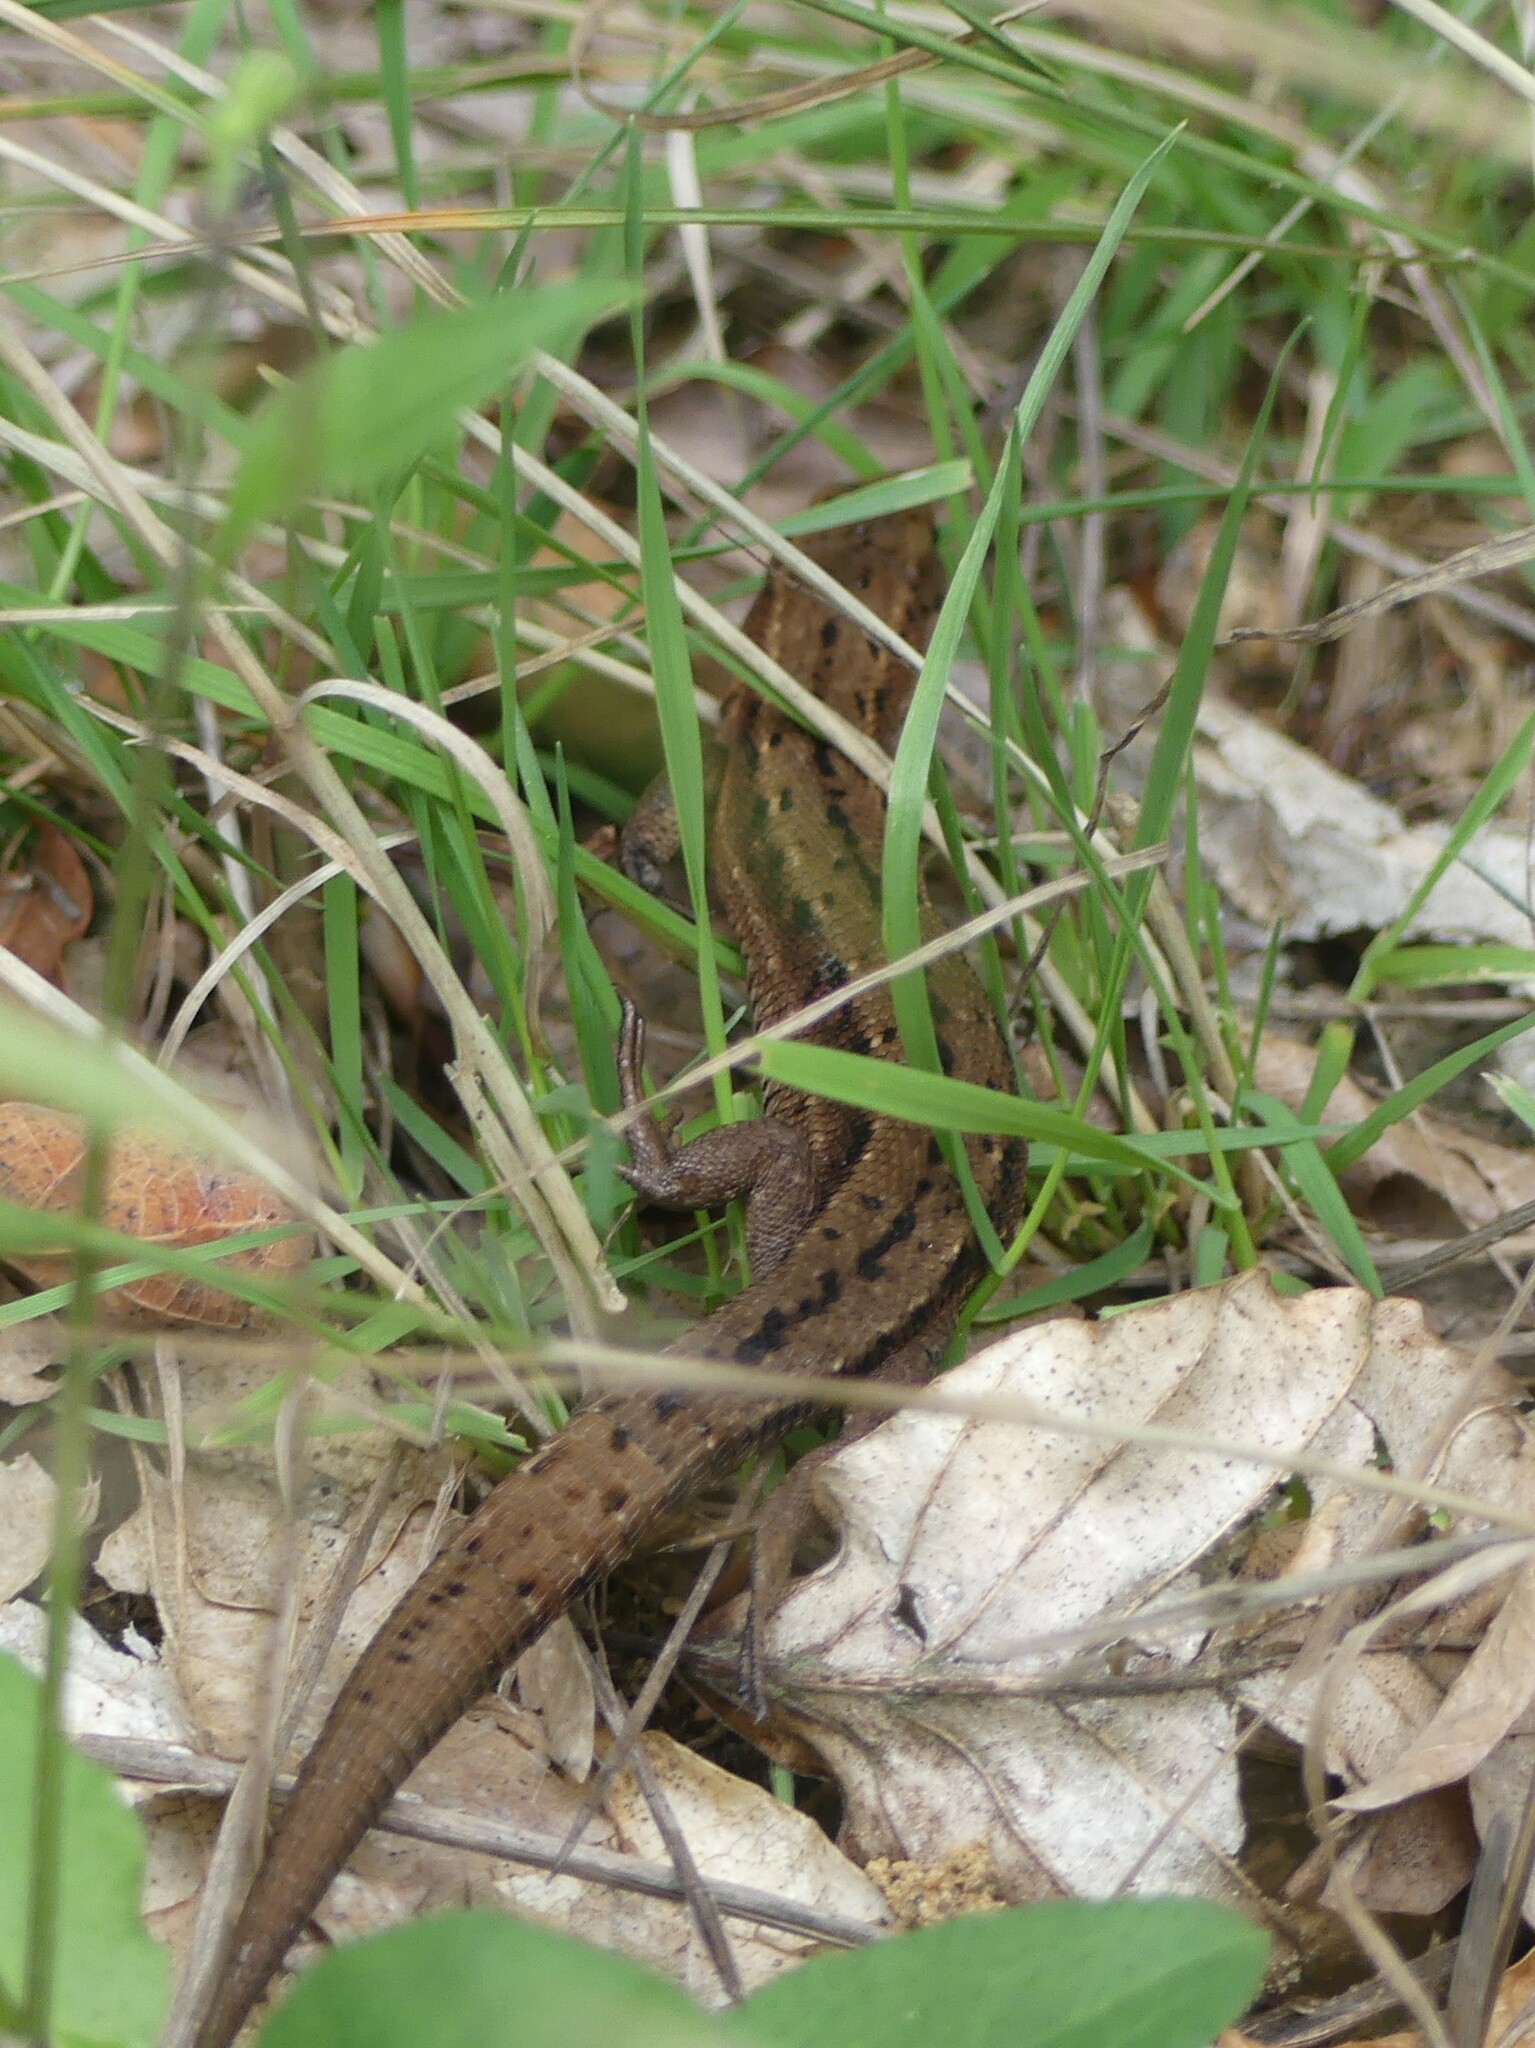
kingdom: Animalia
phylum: Chordata
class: Squamata
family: Lacertidae
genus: Zootoca
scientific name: Zootoca vivipara
